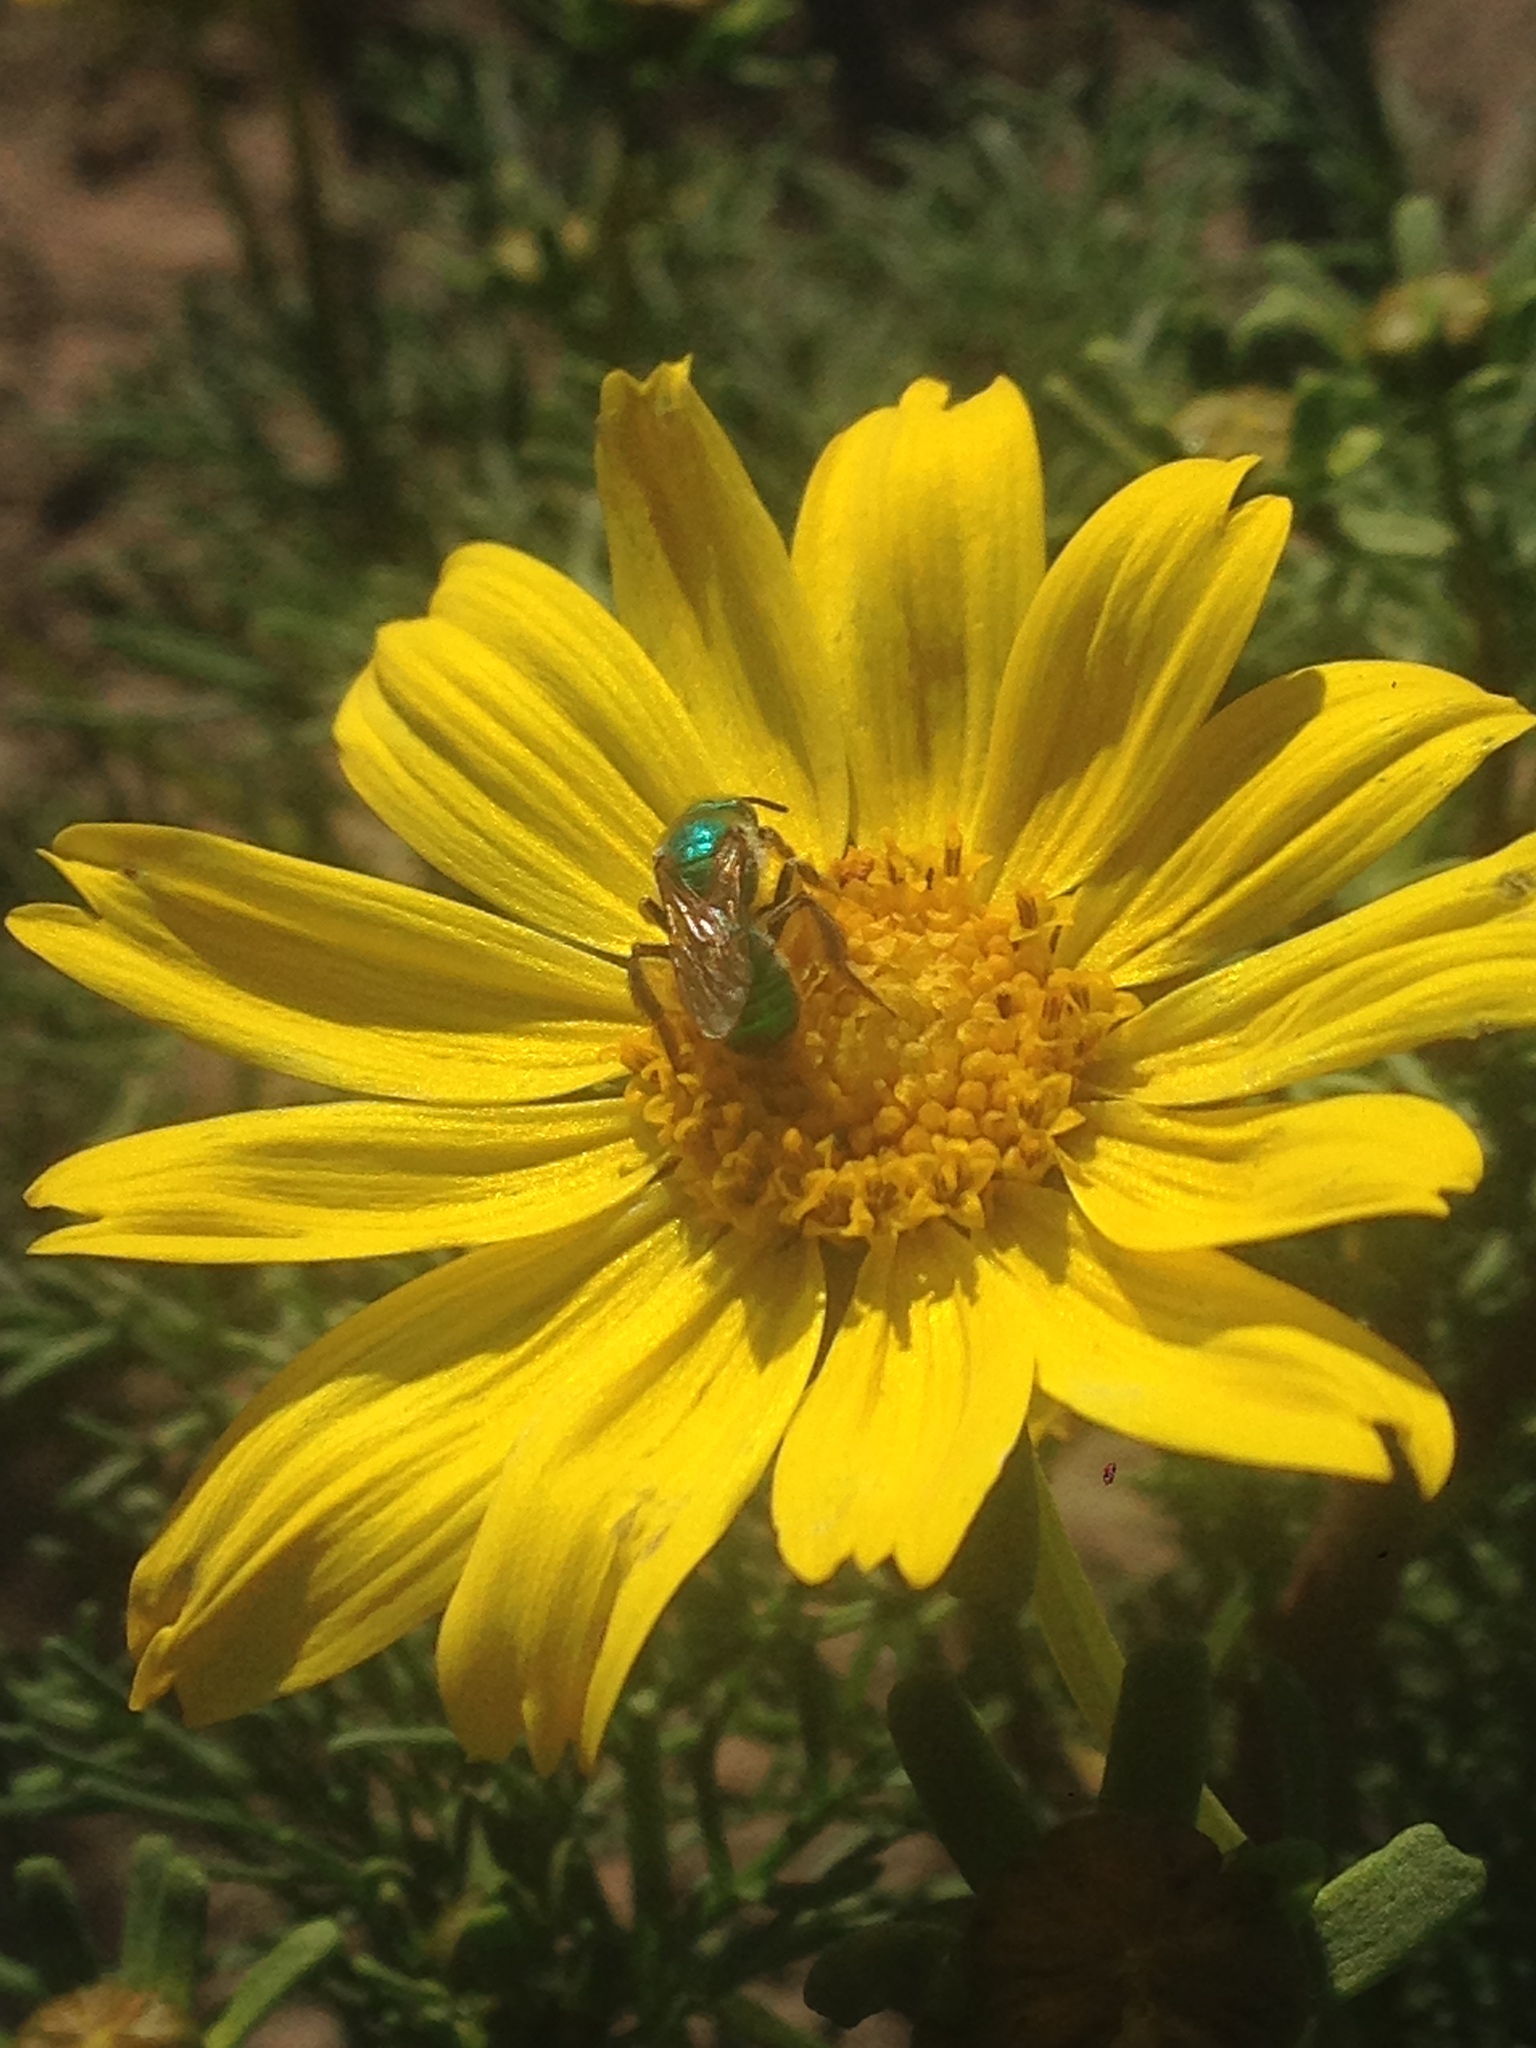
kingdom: Animalia
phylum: Arthropoda
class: Insecta
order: Hymenoptera
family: Halictidae
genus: Agapostemon
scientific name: Agapostemon texanus
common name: Texas striped sweat bee
